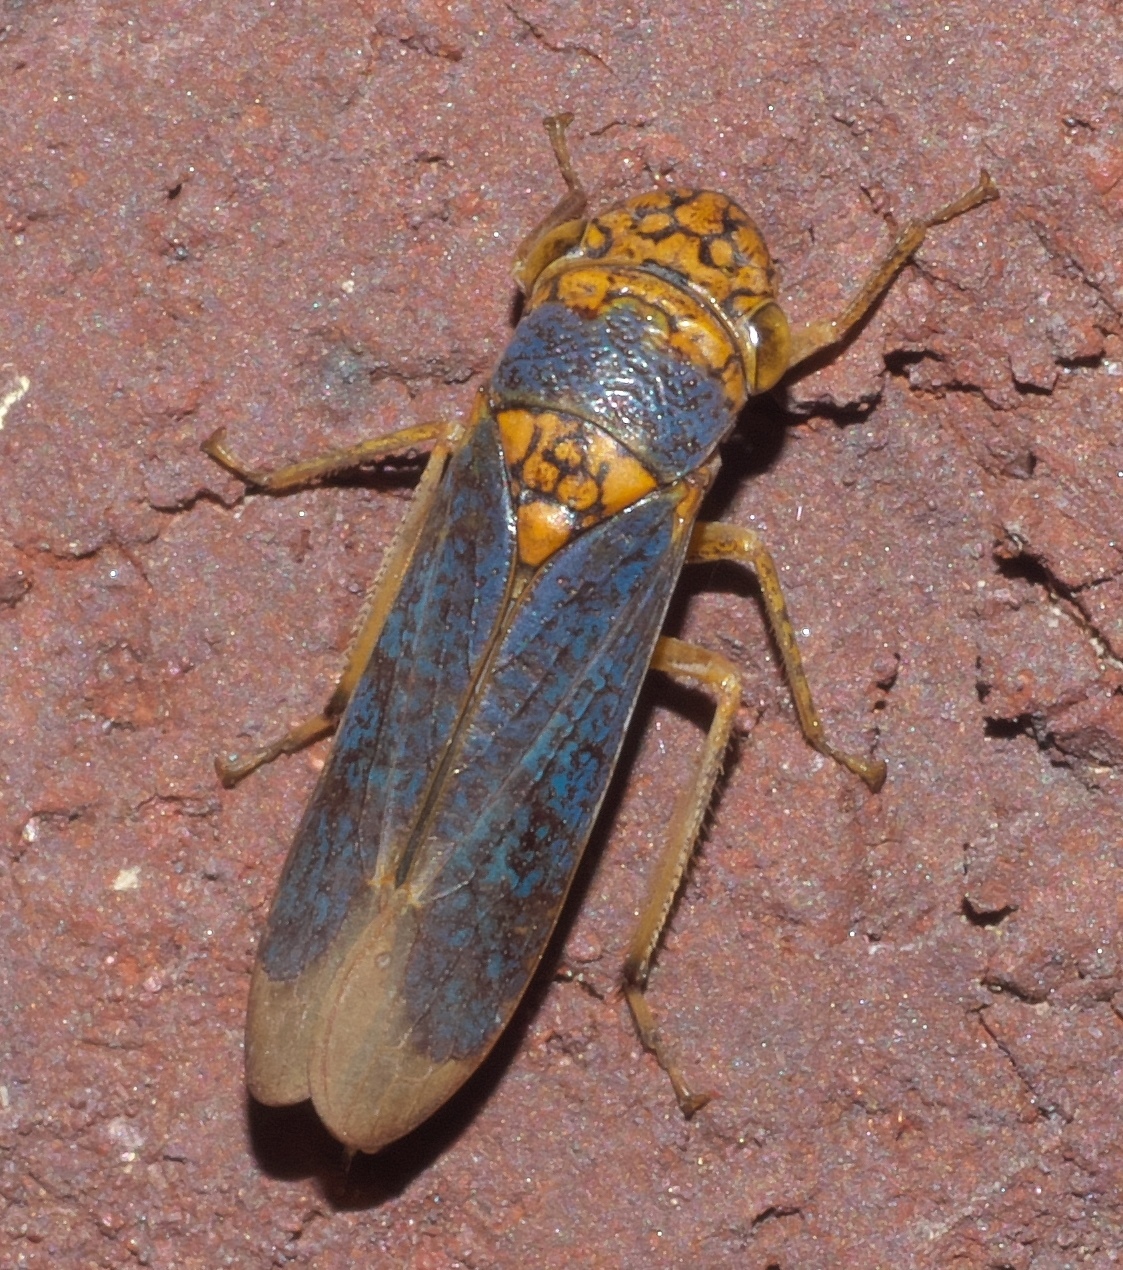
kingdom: Animalia
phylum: Arthropoda
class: Insecta
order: Hemiptera
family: Cicadellidae
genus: Oncometopia
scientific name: Oncometopia orbona
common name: Broad-headed sharpshooter
